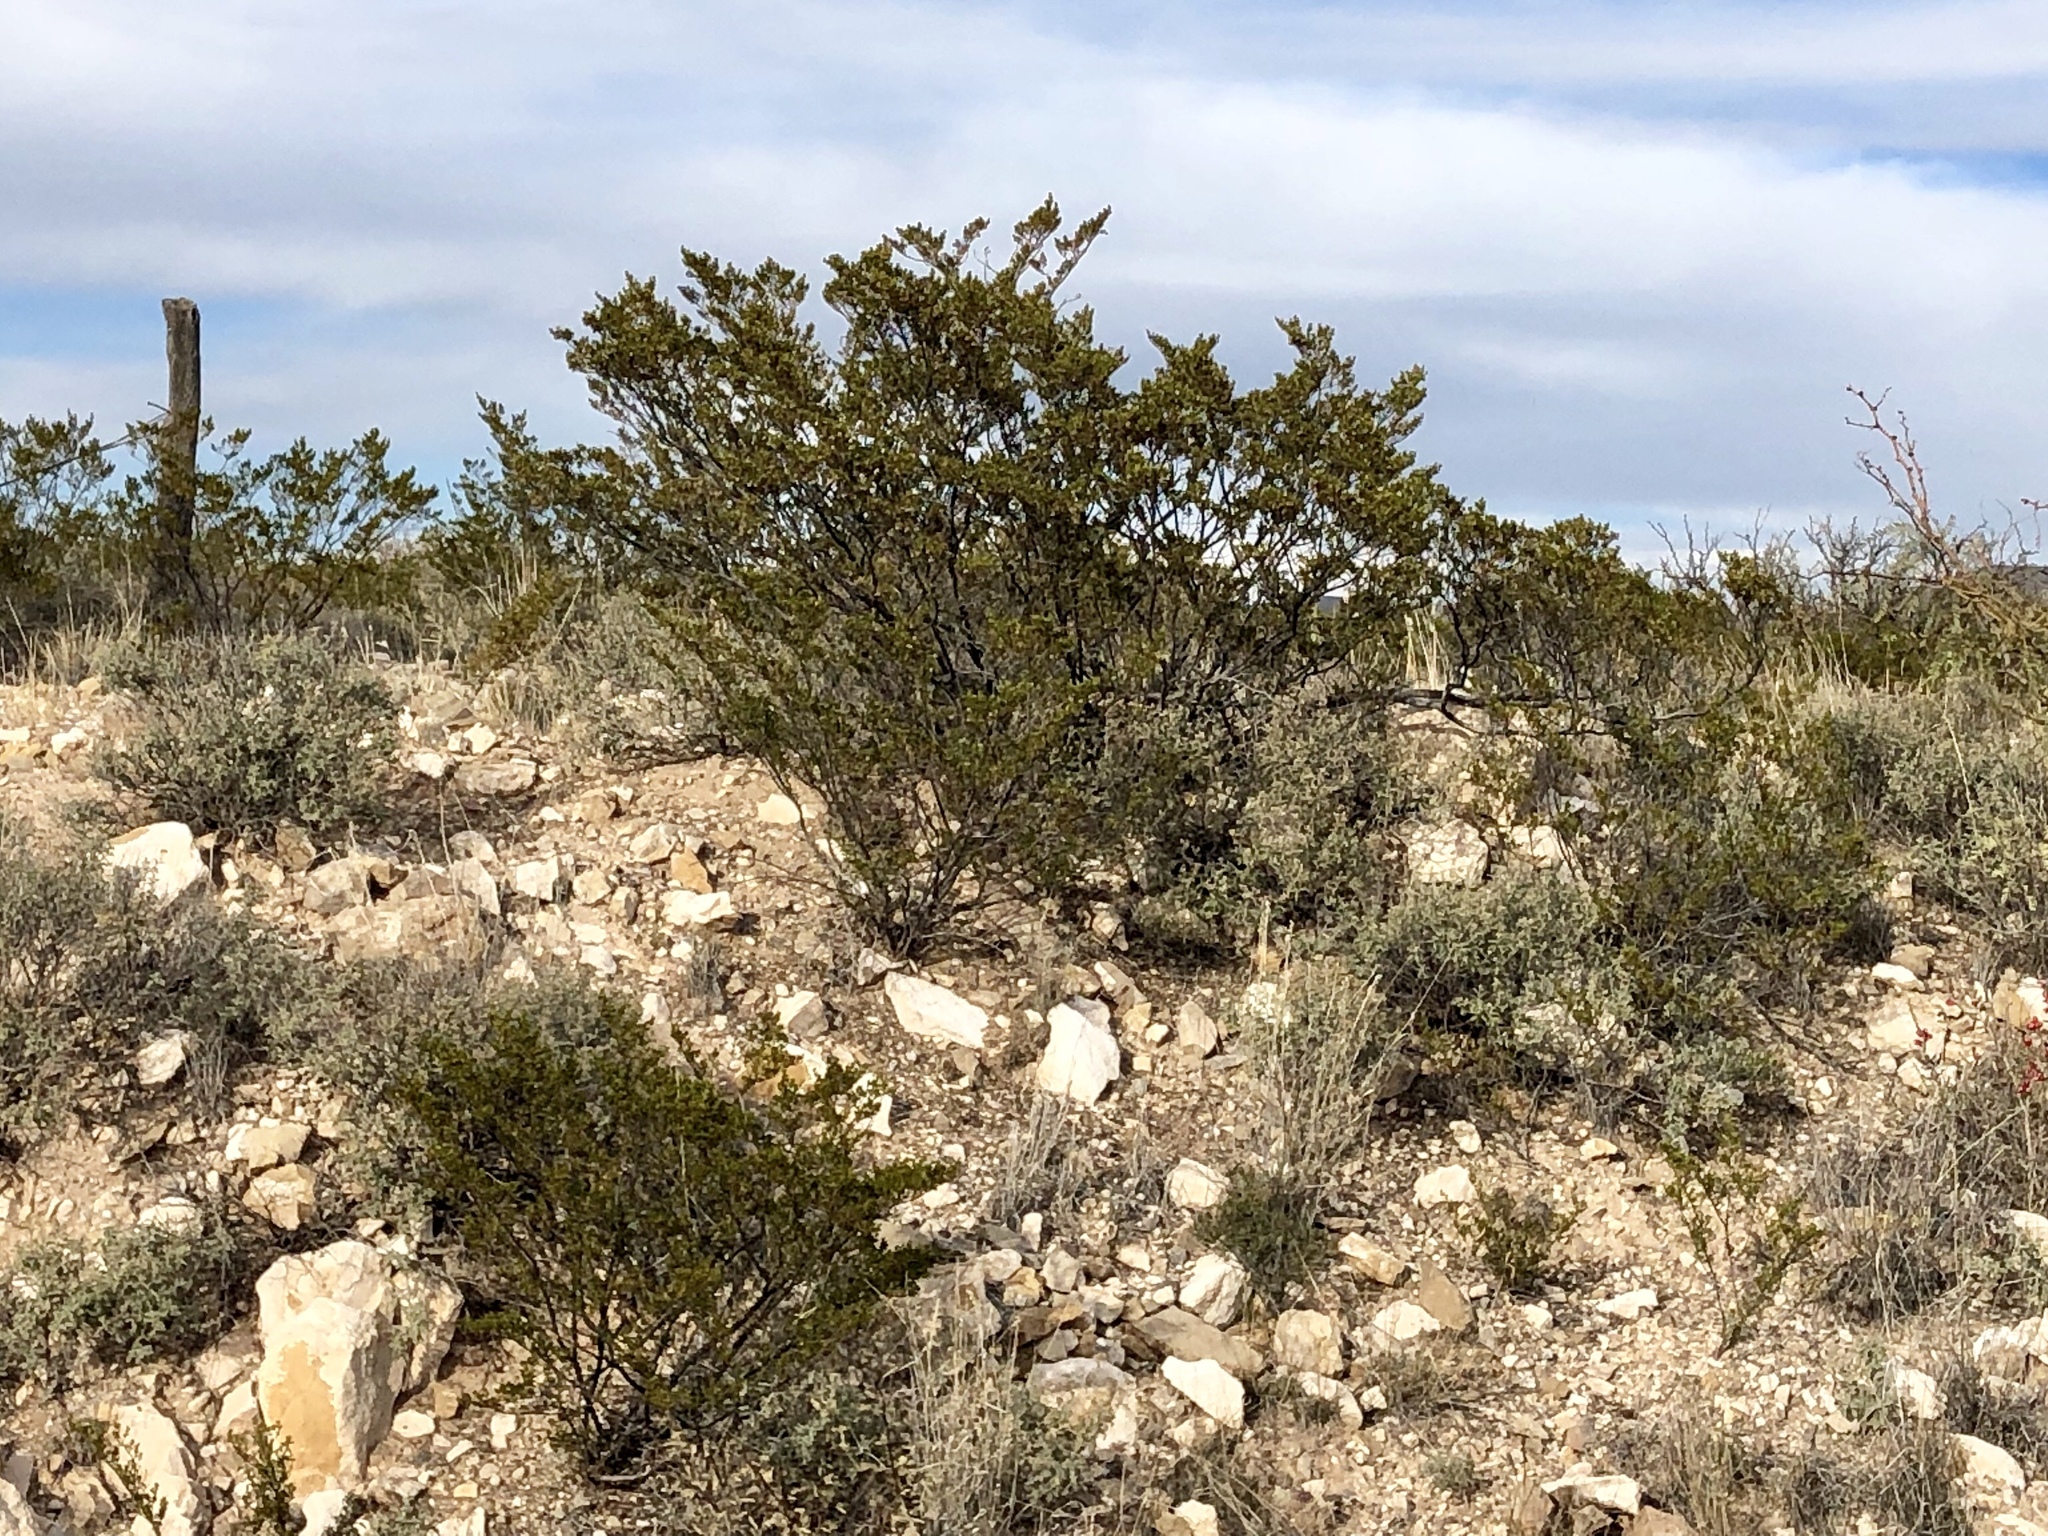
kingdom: Plantae
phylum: Tracheophyta
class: Magnoliopsida
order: Zygophyllales
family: Zygophyllaceae
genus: Larrea
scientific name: Larrea tridentata
